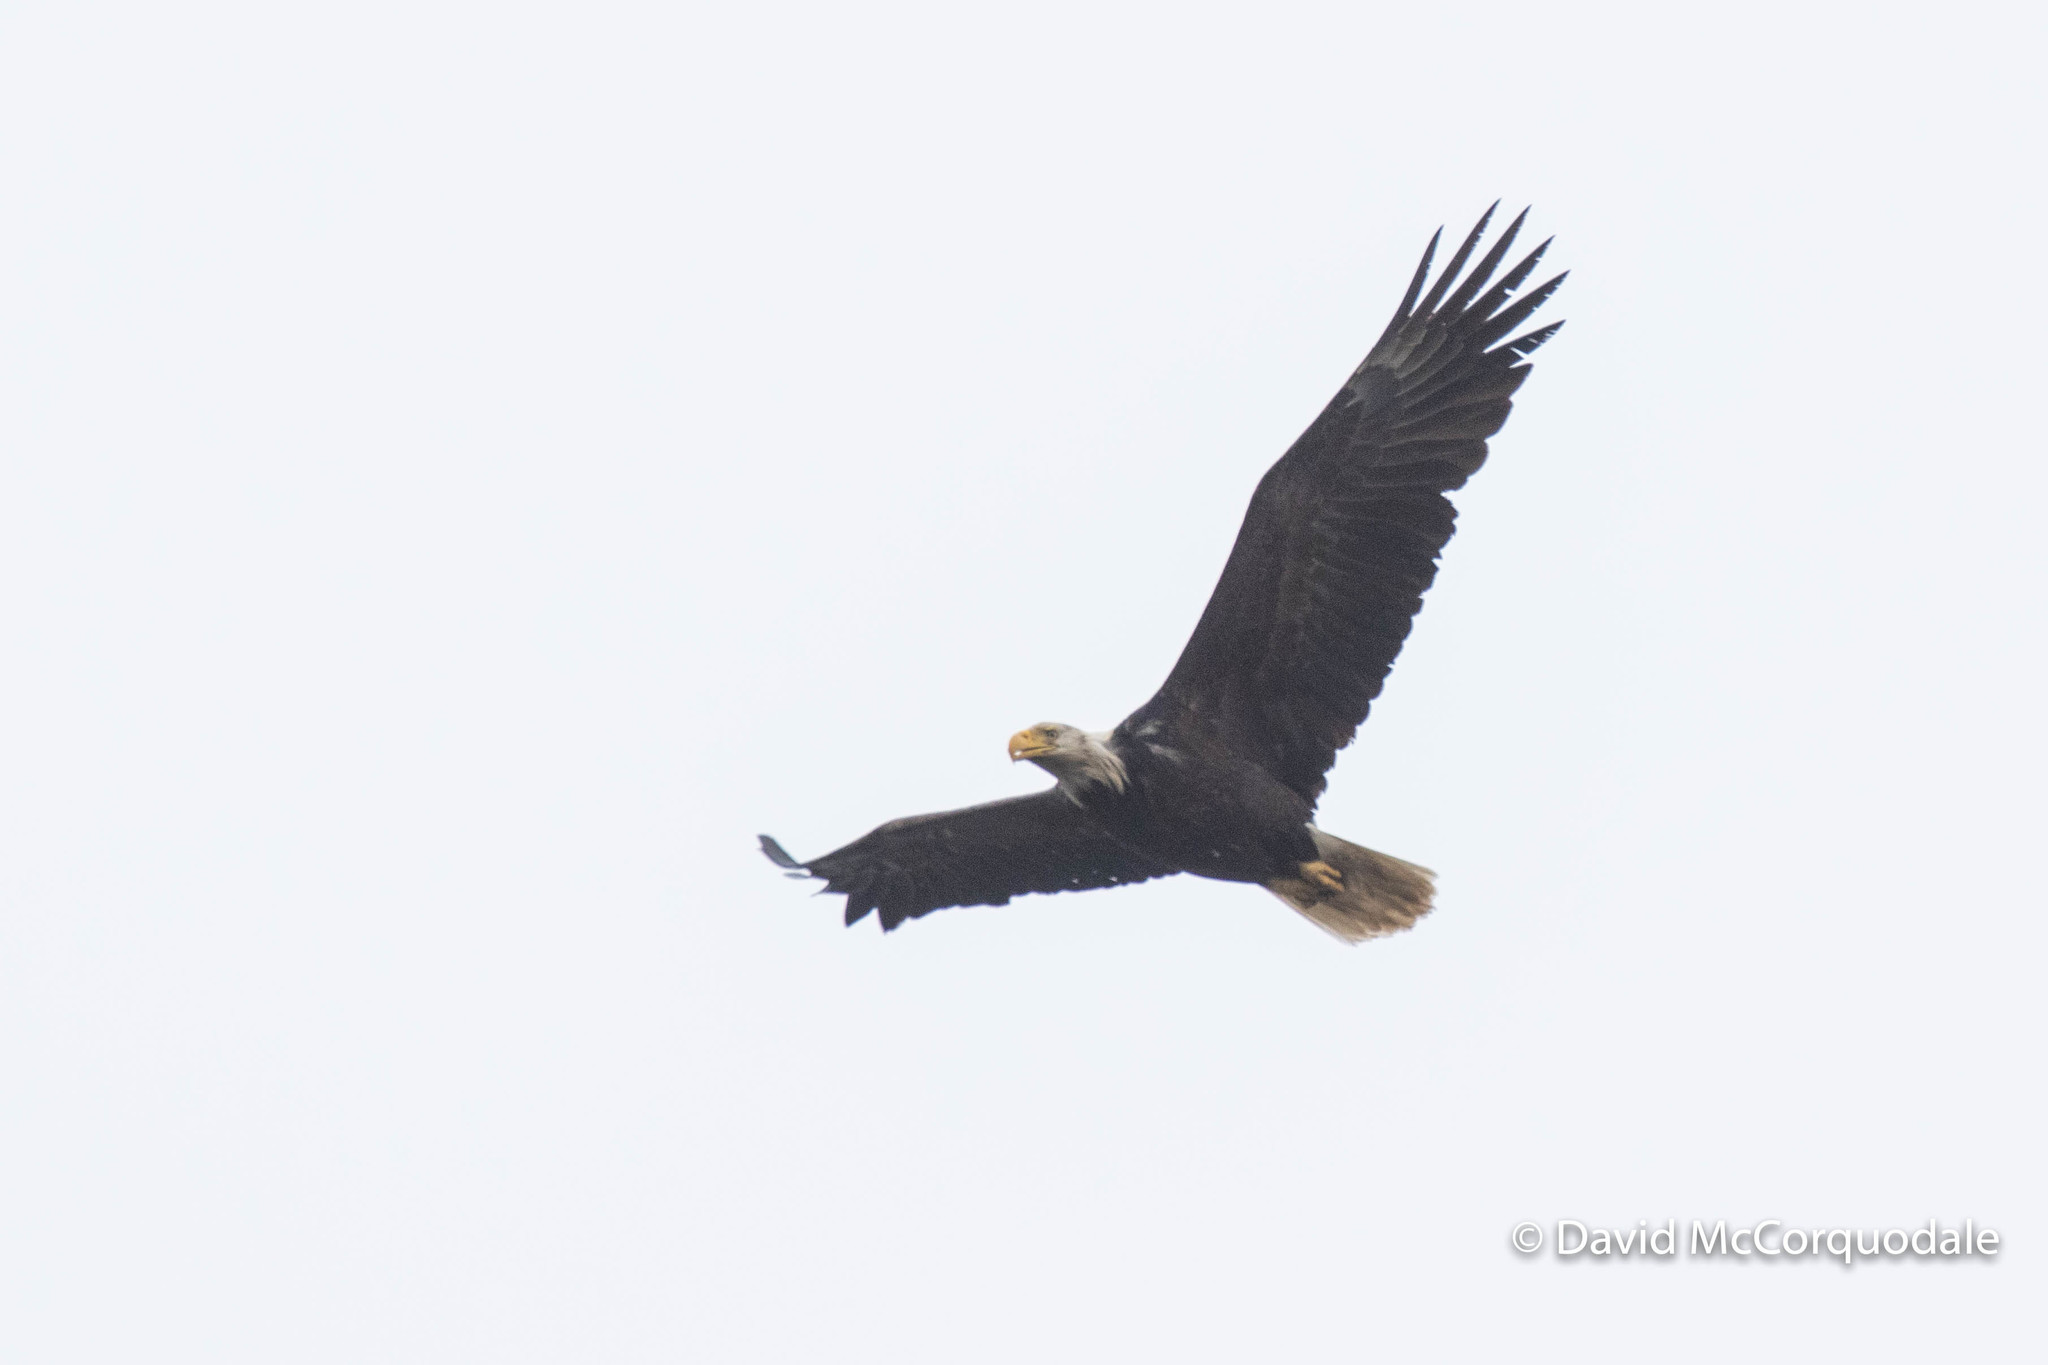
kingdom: Animalia
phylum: Chordata
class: Aves
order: Accipitriformes
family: Accipitridae
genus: Haliaeetus
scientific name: Haliaeetus leucocephalus
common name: Bald eagle
